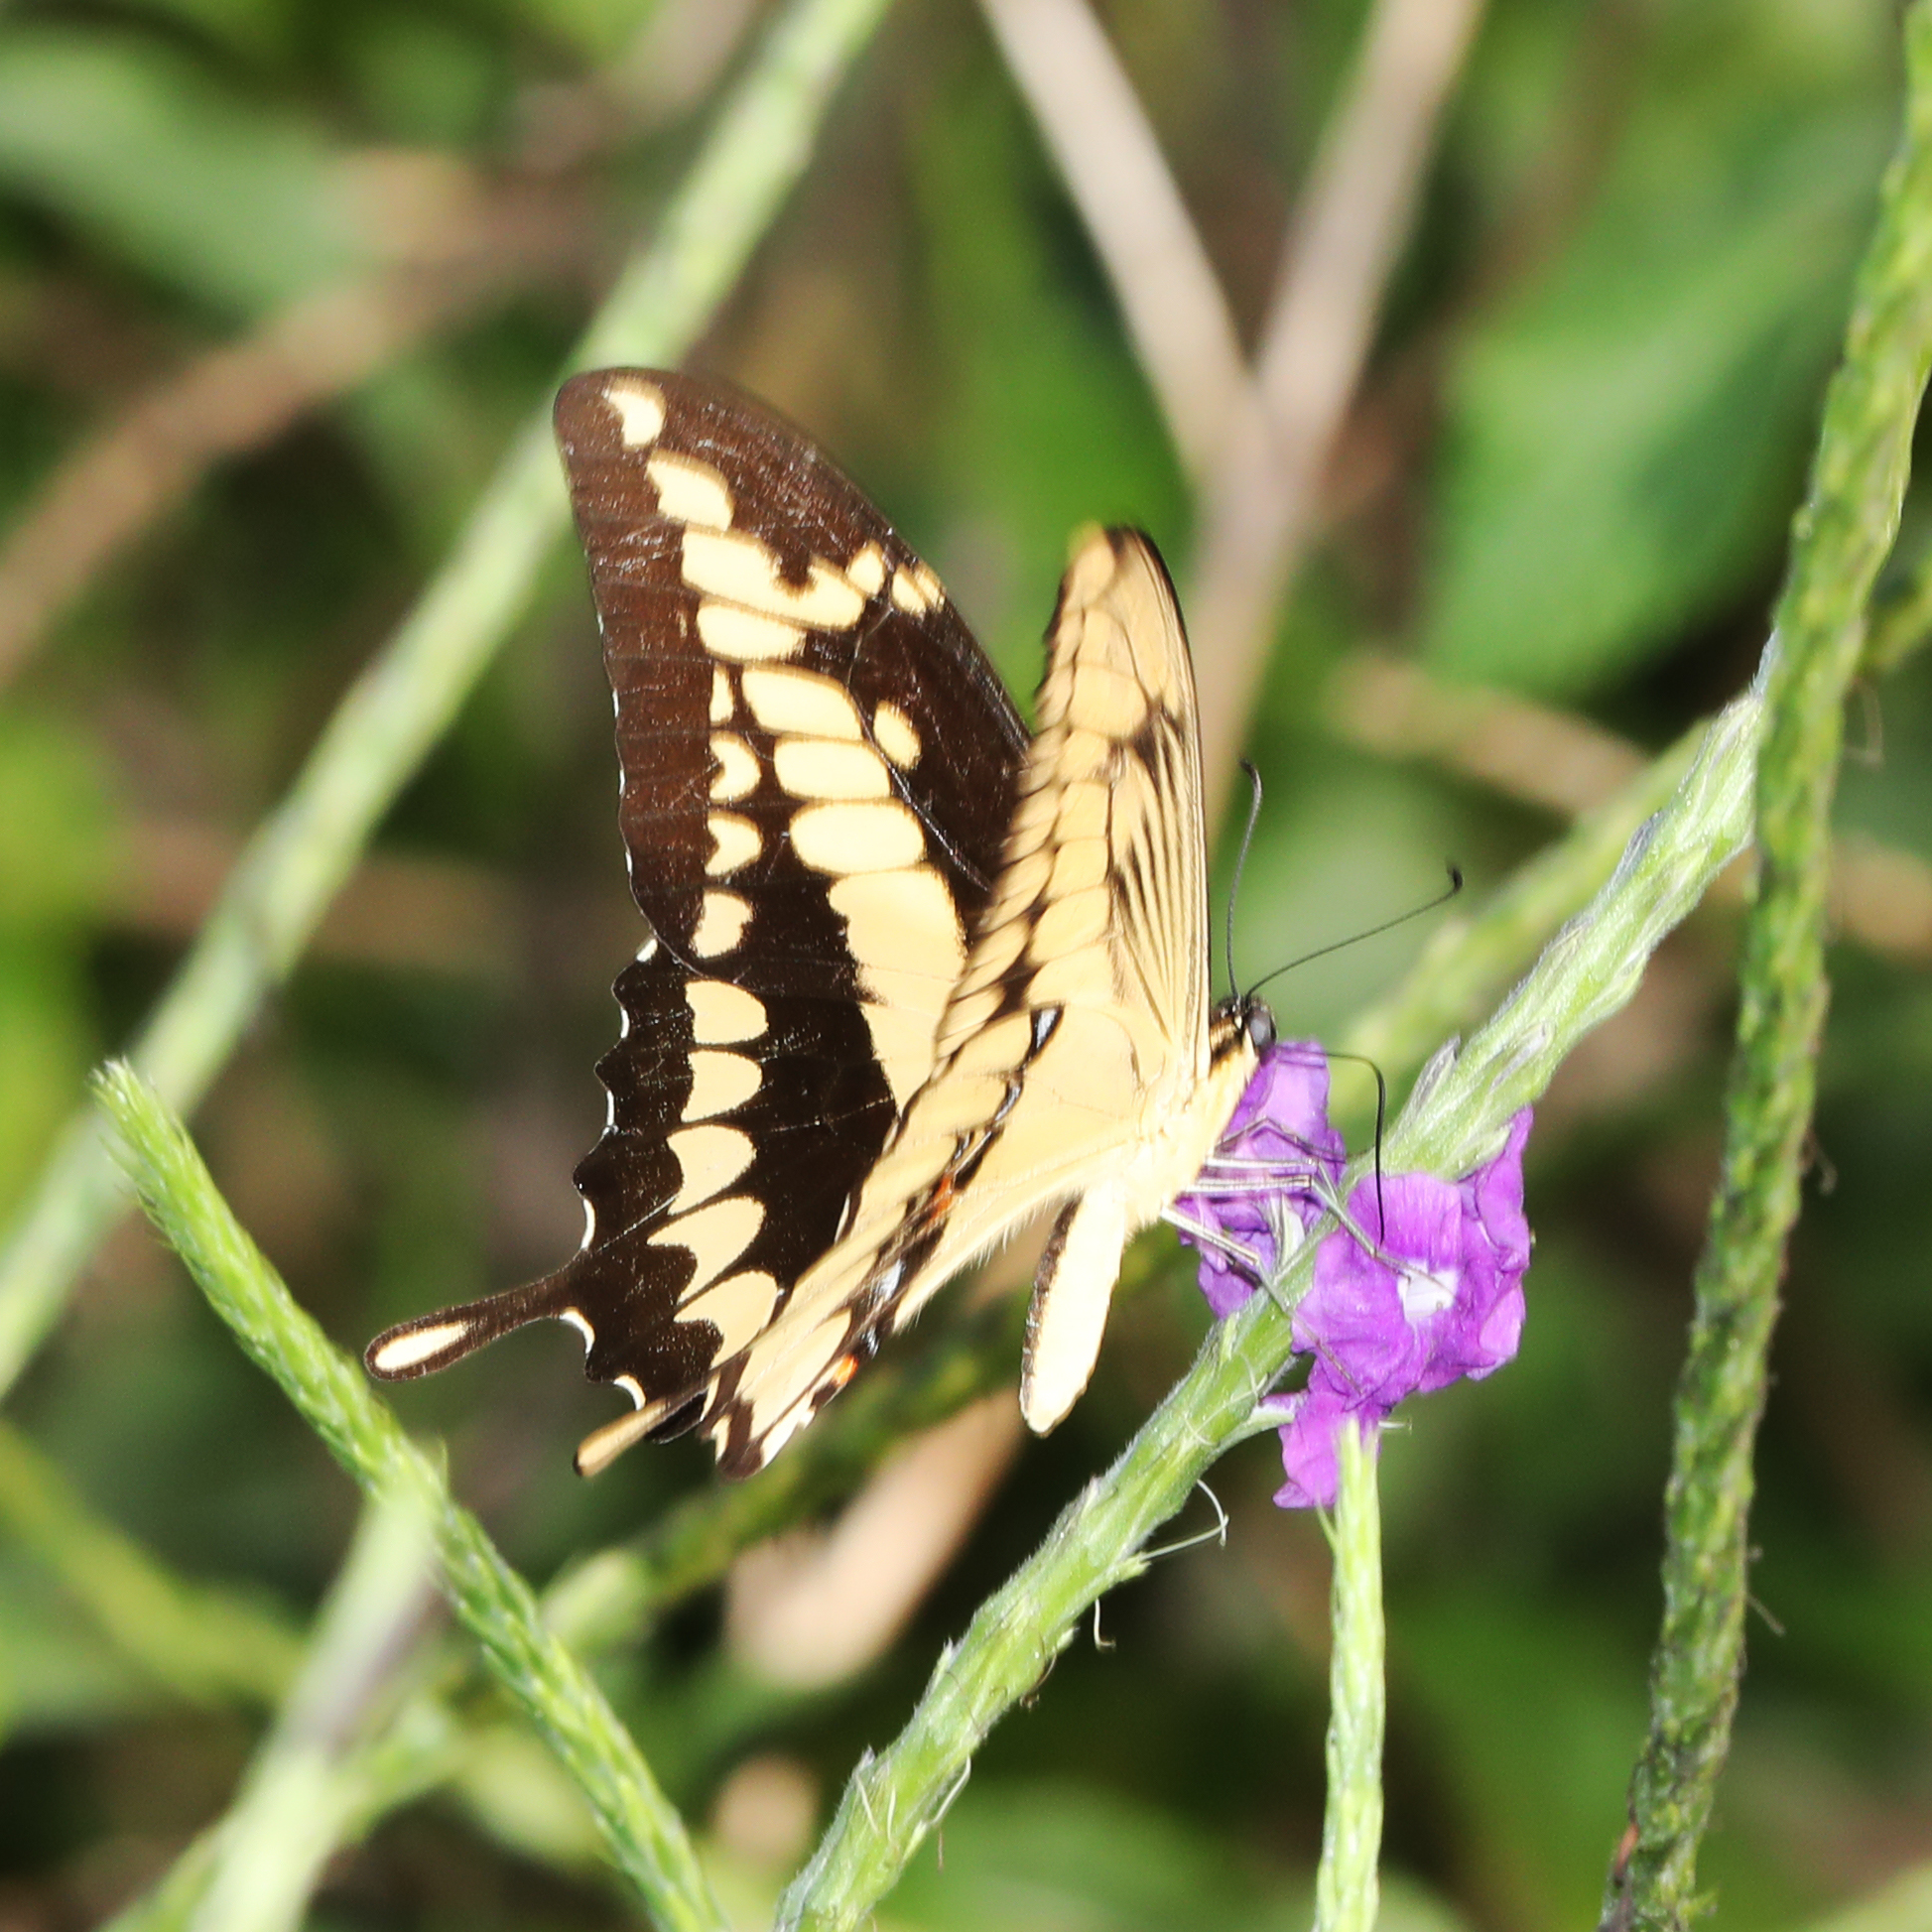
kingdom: Animalia
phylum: Arthropoda
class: Insecta
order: Lepidoptera
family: Papilionidae
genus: Papilio
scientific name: Papilio thoas
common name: King swallowtail
